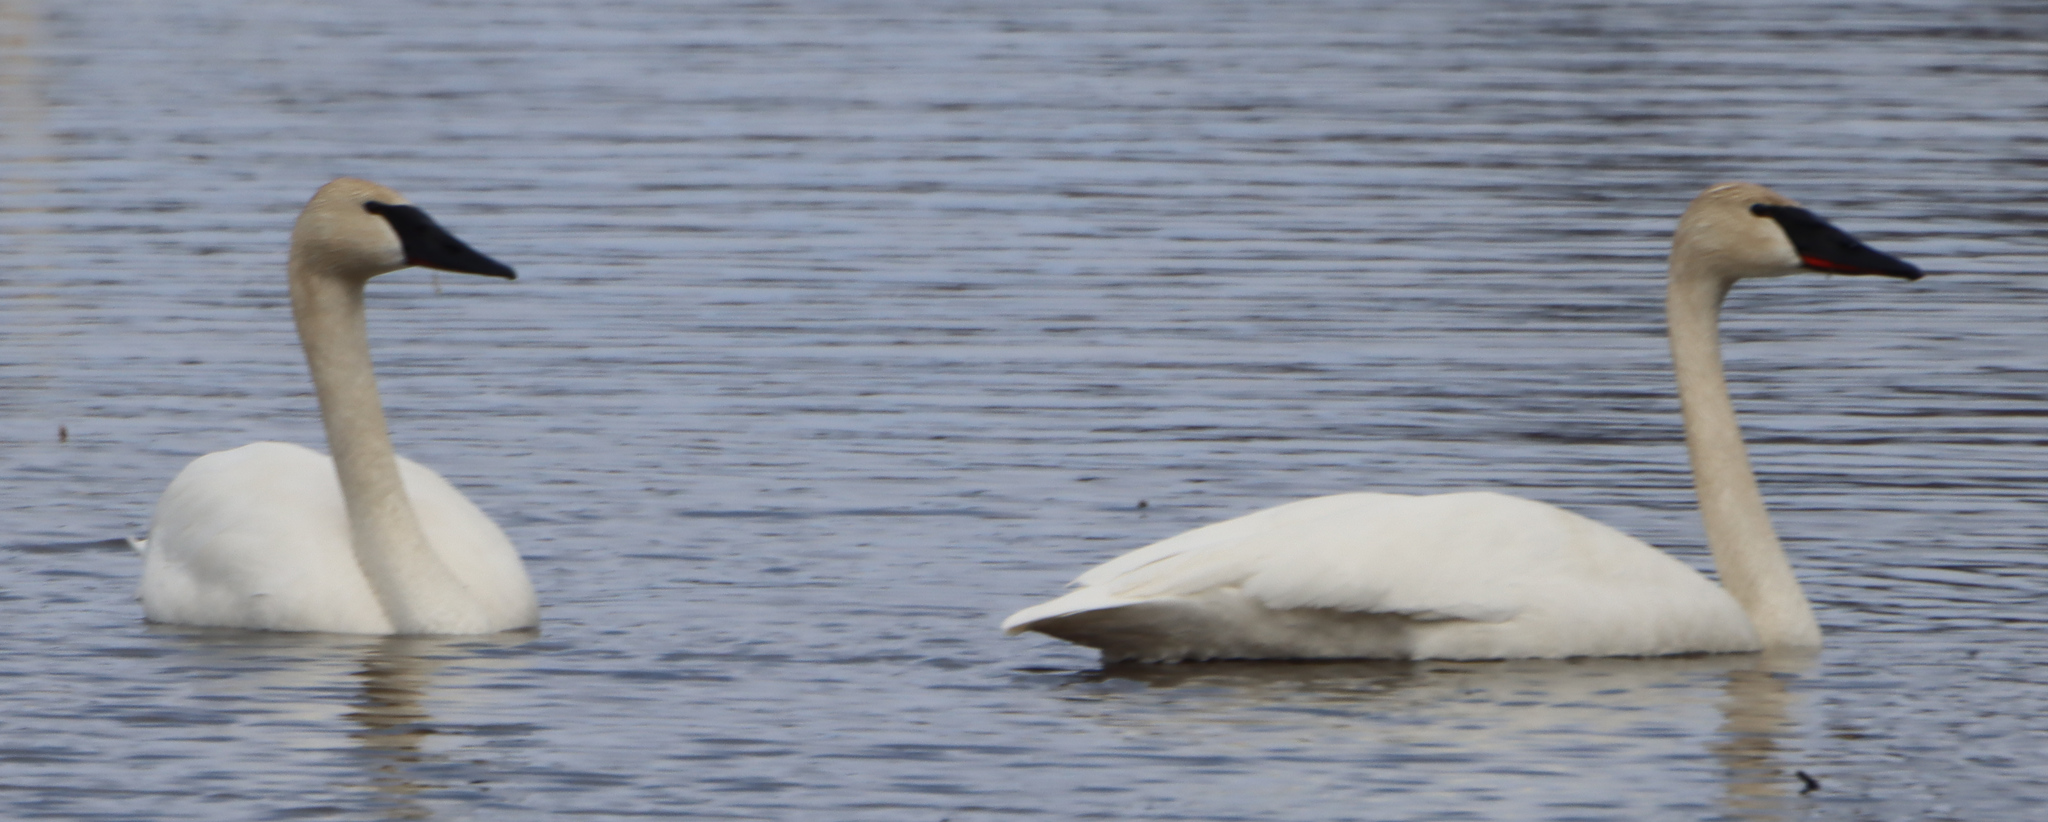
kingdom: Animalia
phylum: Chordata
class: Aves
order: Anseriformes
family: Anatidae
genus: Cygnus
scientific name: Cygnus buccinator
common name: Trumpeter swan
